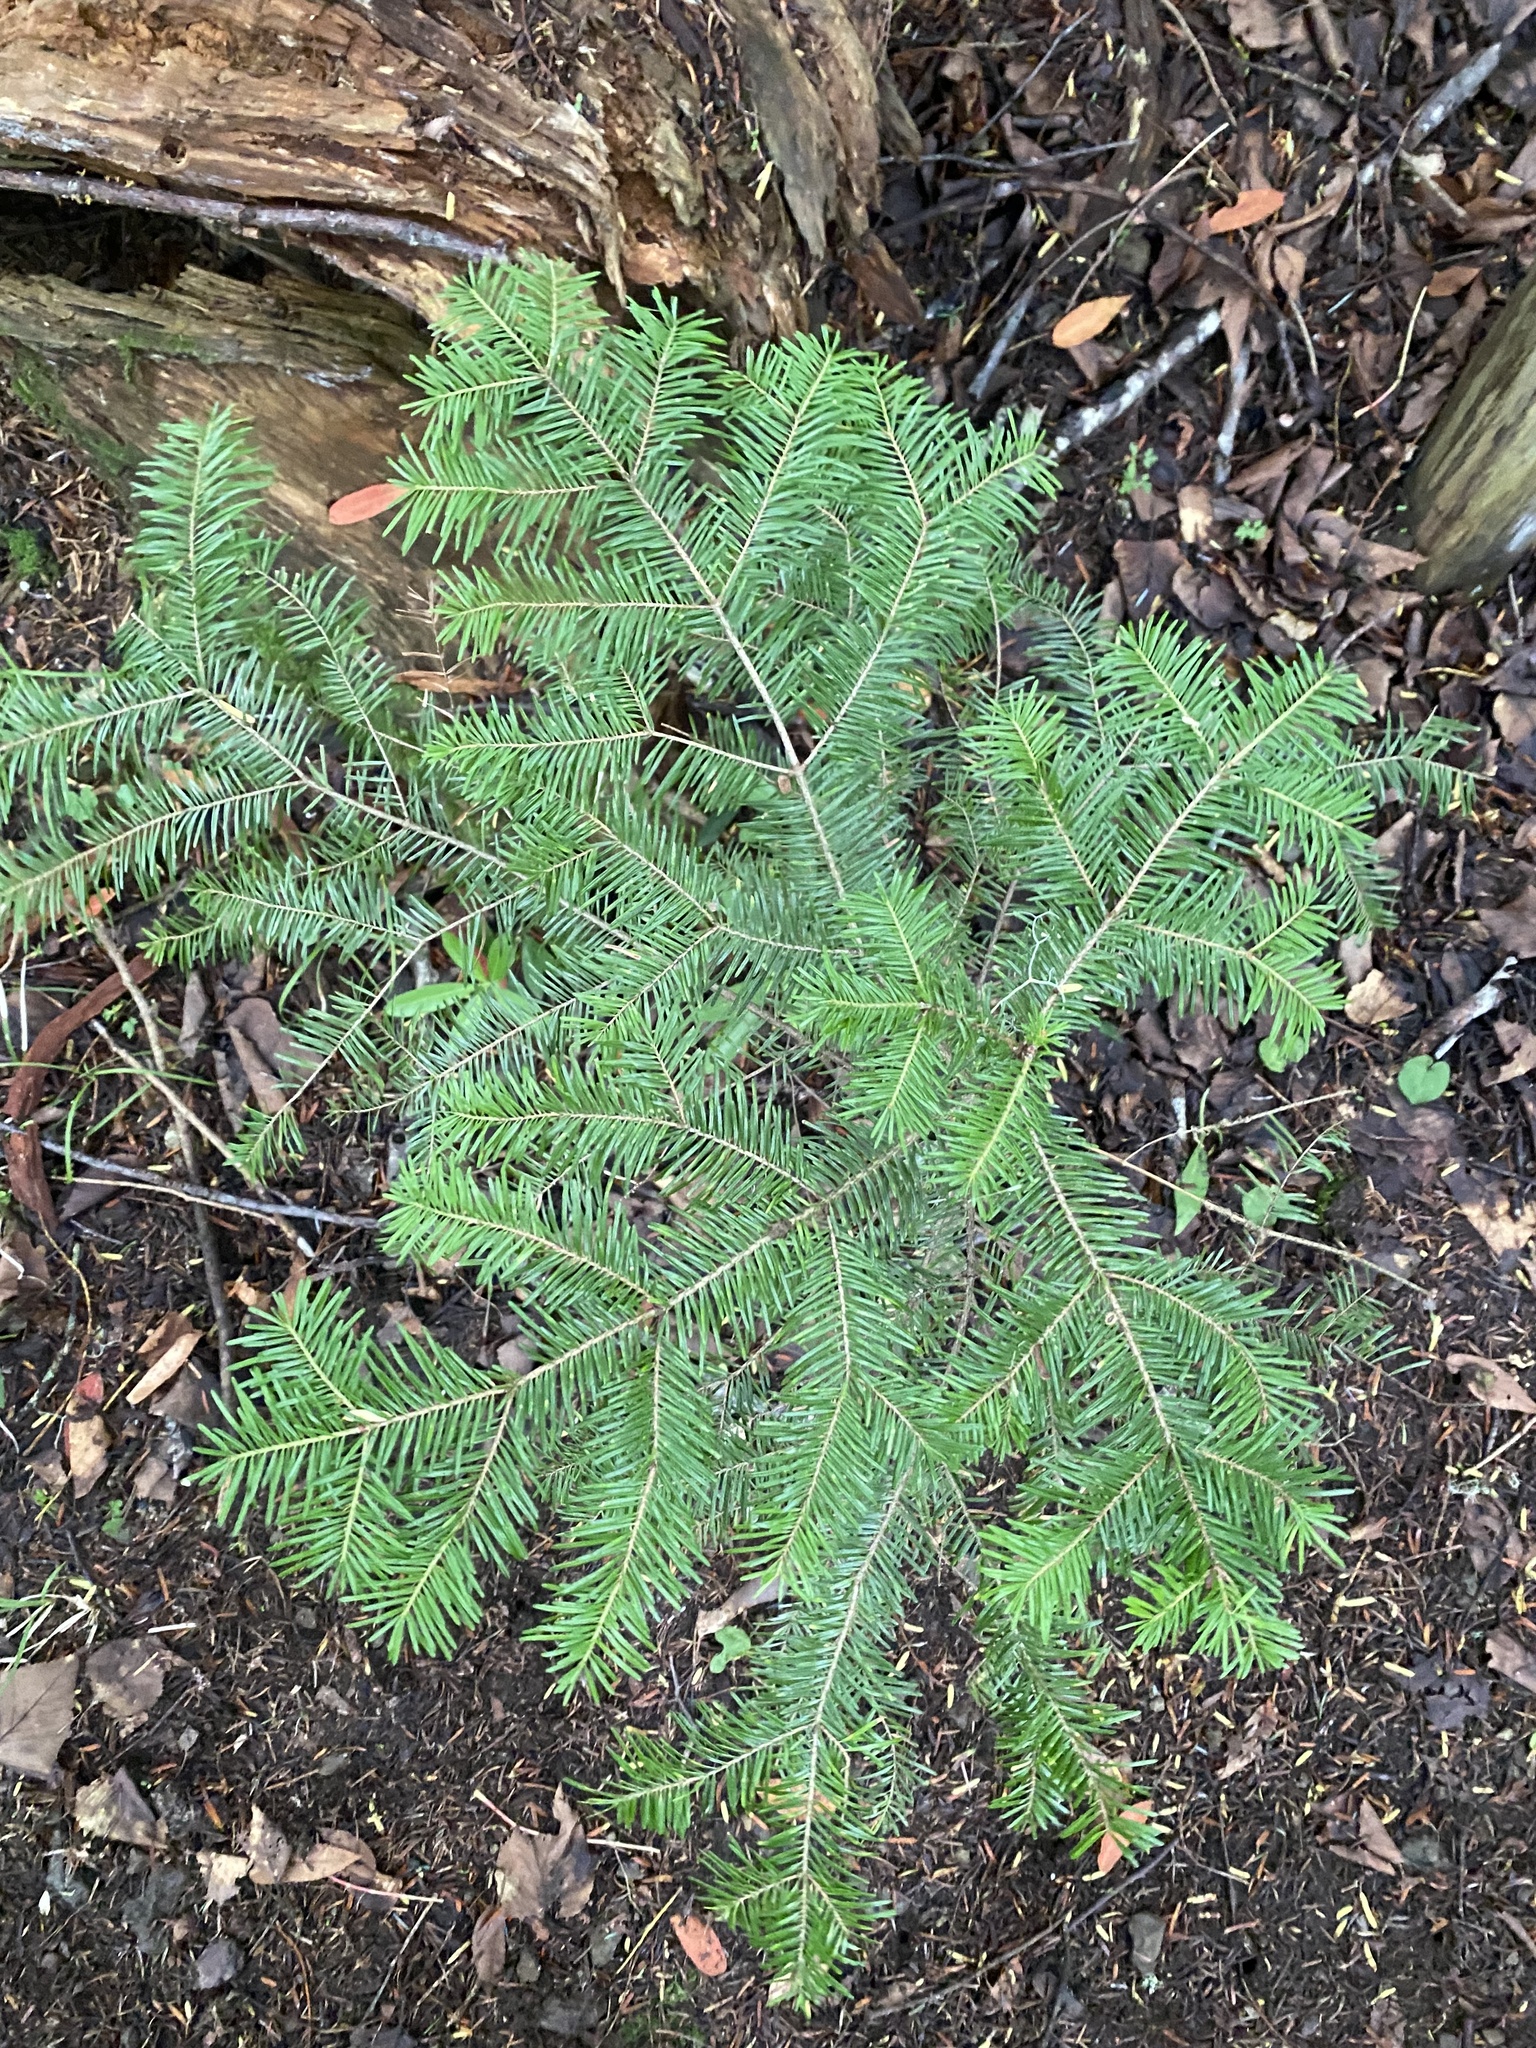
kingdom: Plantae
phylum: Tracheophyta
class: Pinopsida
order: Pinales
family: Pinaceae
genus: Abies
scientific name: Abies sachalinensis
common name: Sakhalin fir
